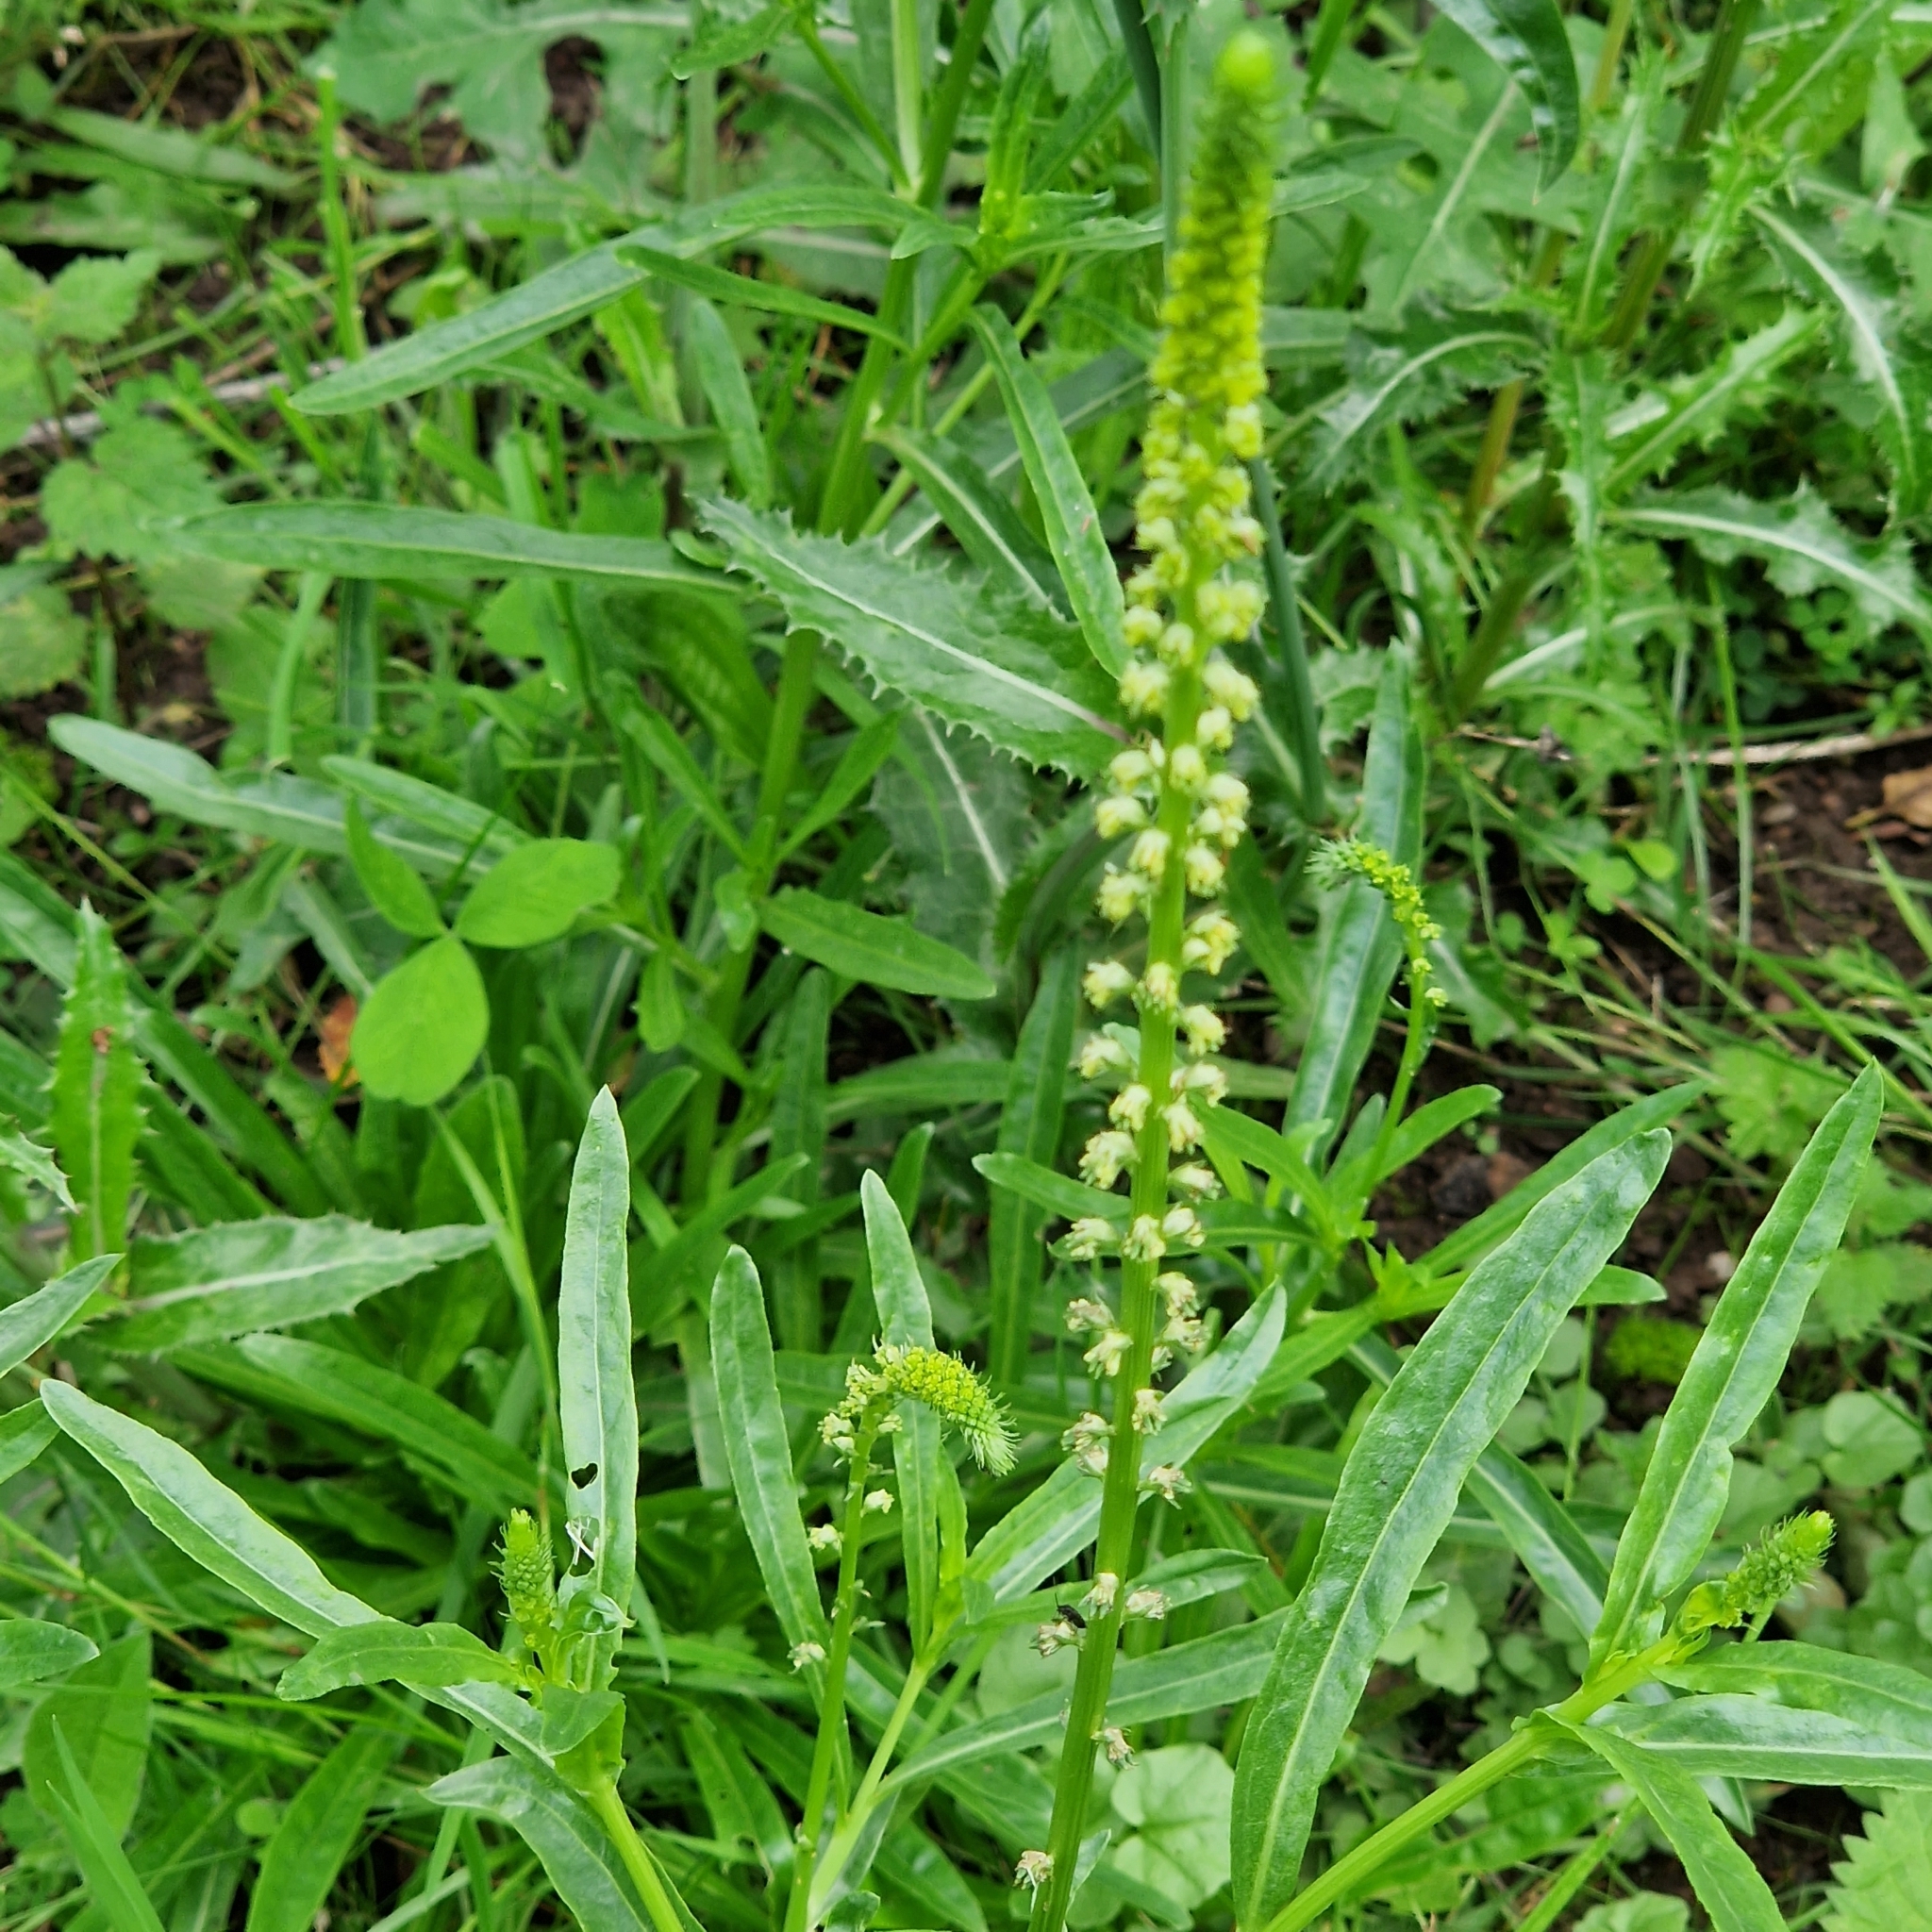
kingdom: Plantae
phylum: Tracheophyta
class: Magnoliopsida
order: Brassicales
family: Resedaceae
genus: Reseda
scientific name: Reseda luteola
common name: Weld
